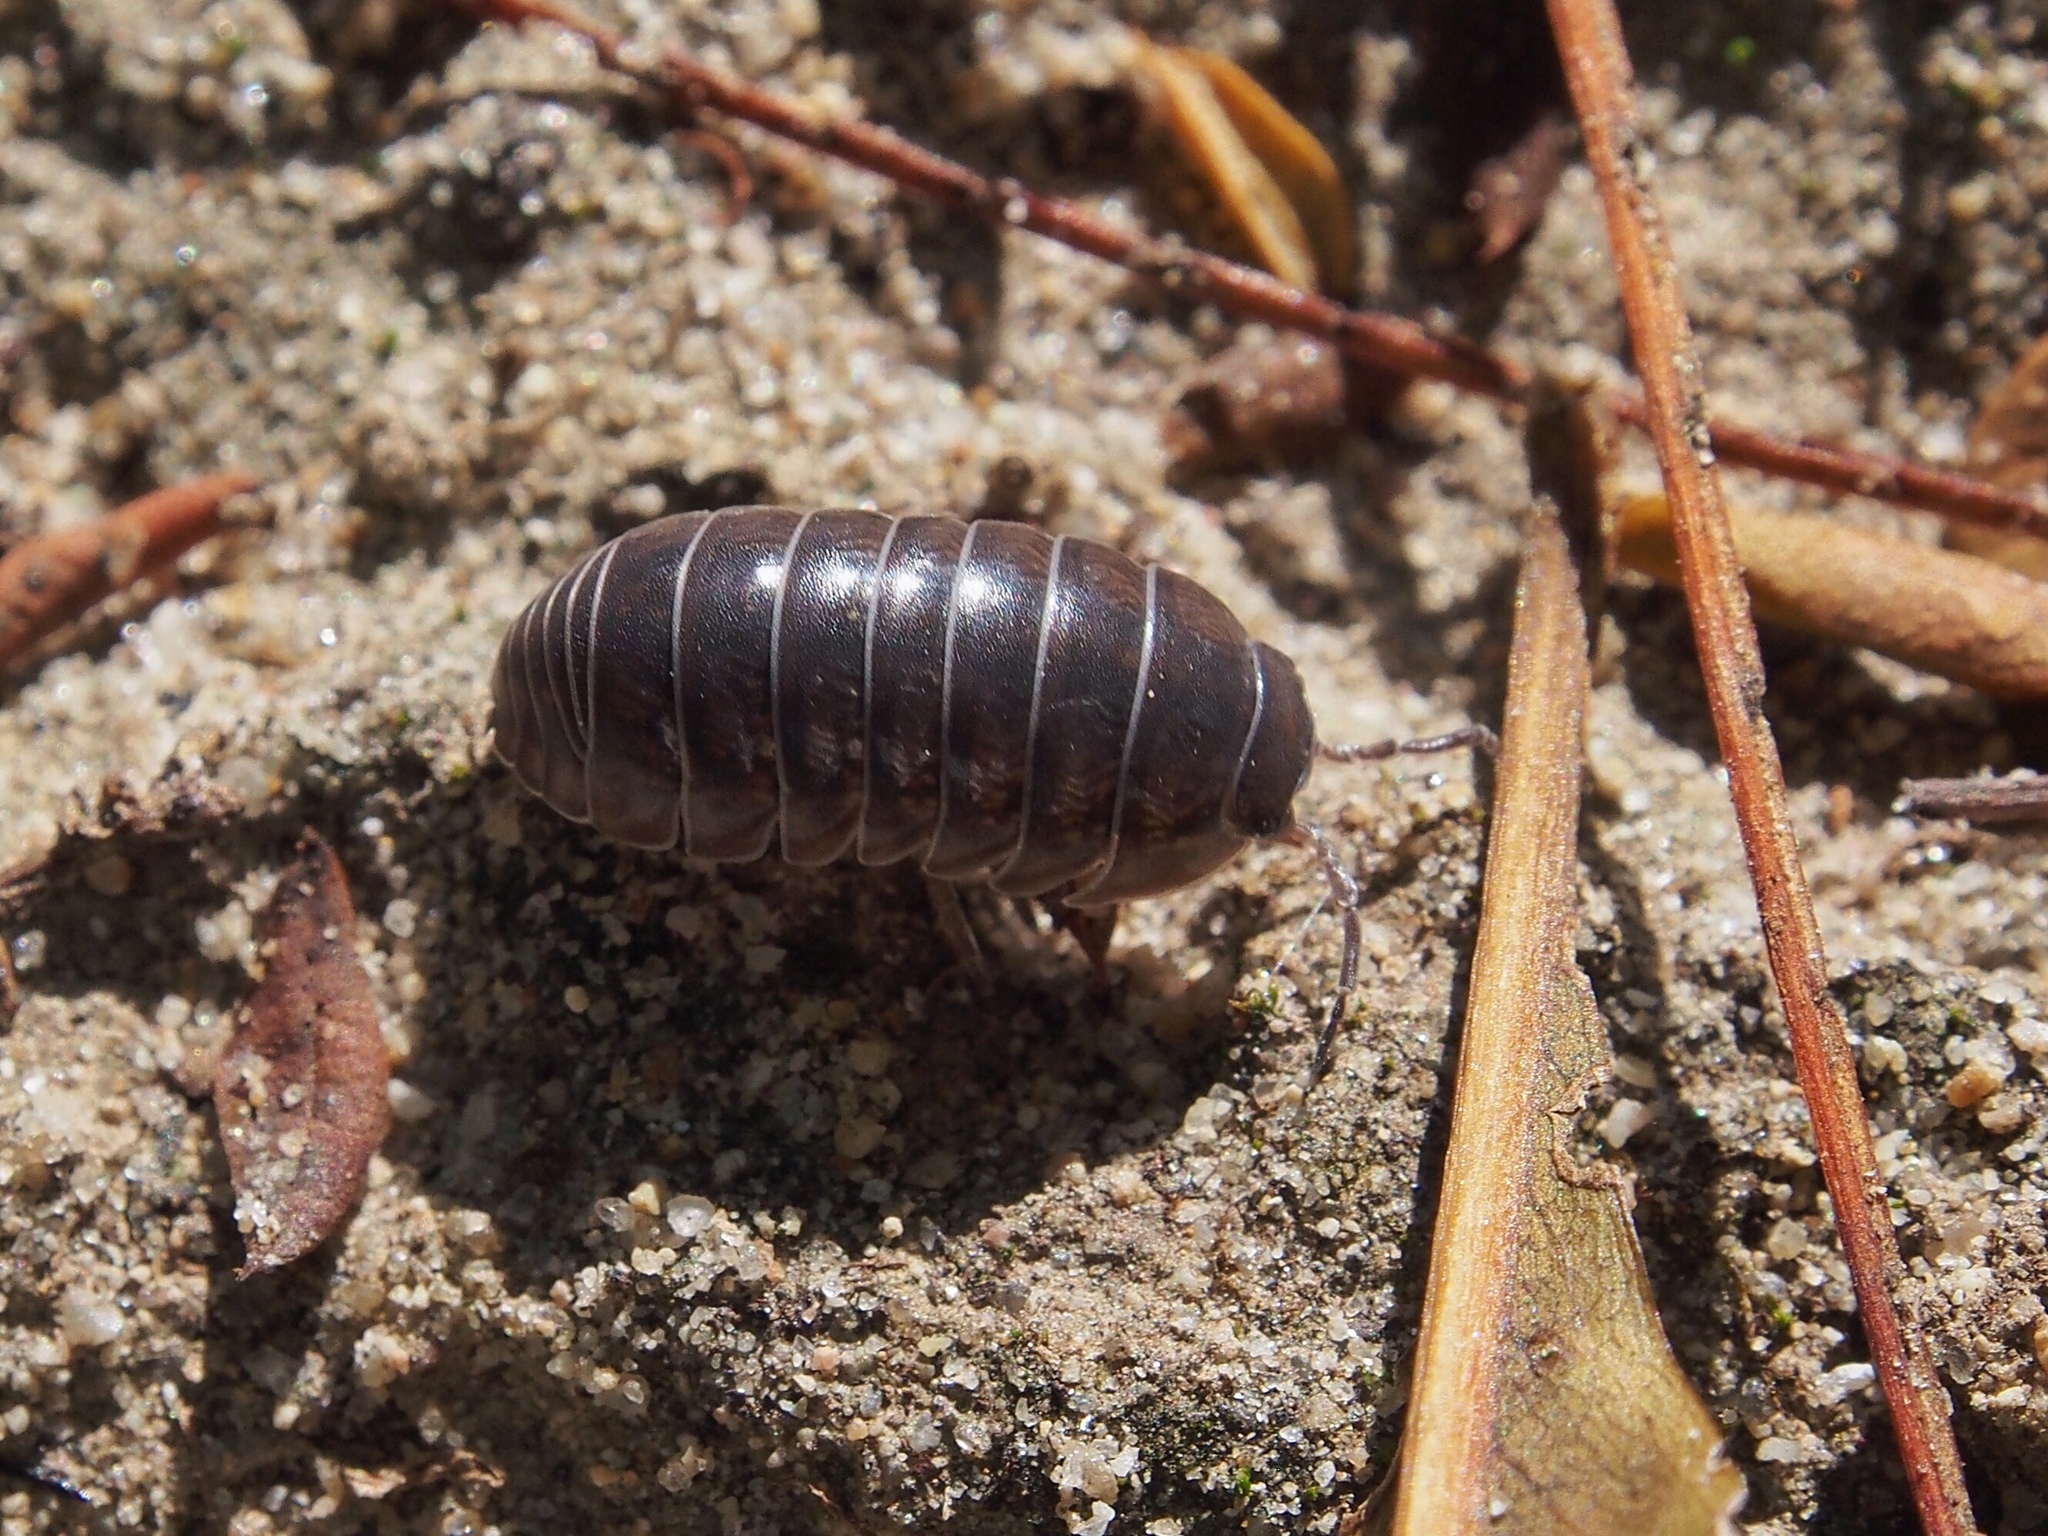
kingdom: Animalia
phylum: Arthropoda
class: Malacostraca
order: Isopoda
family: Armadillidiidae
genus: Armadillidium
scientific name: Armadillidium vulgare
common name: Common pill woodlouse
